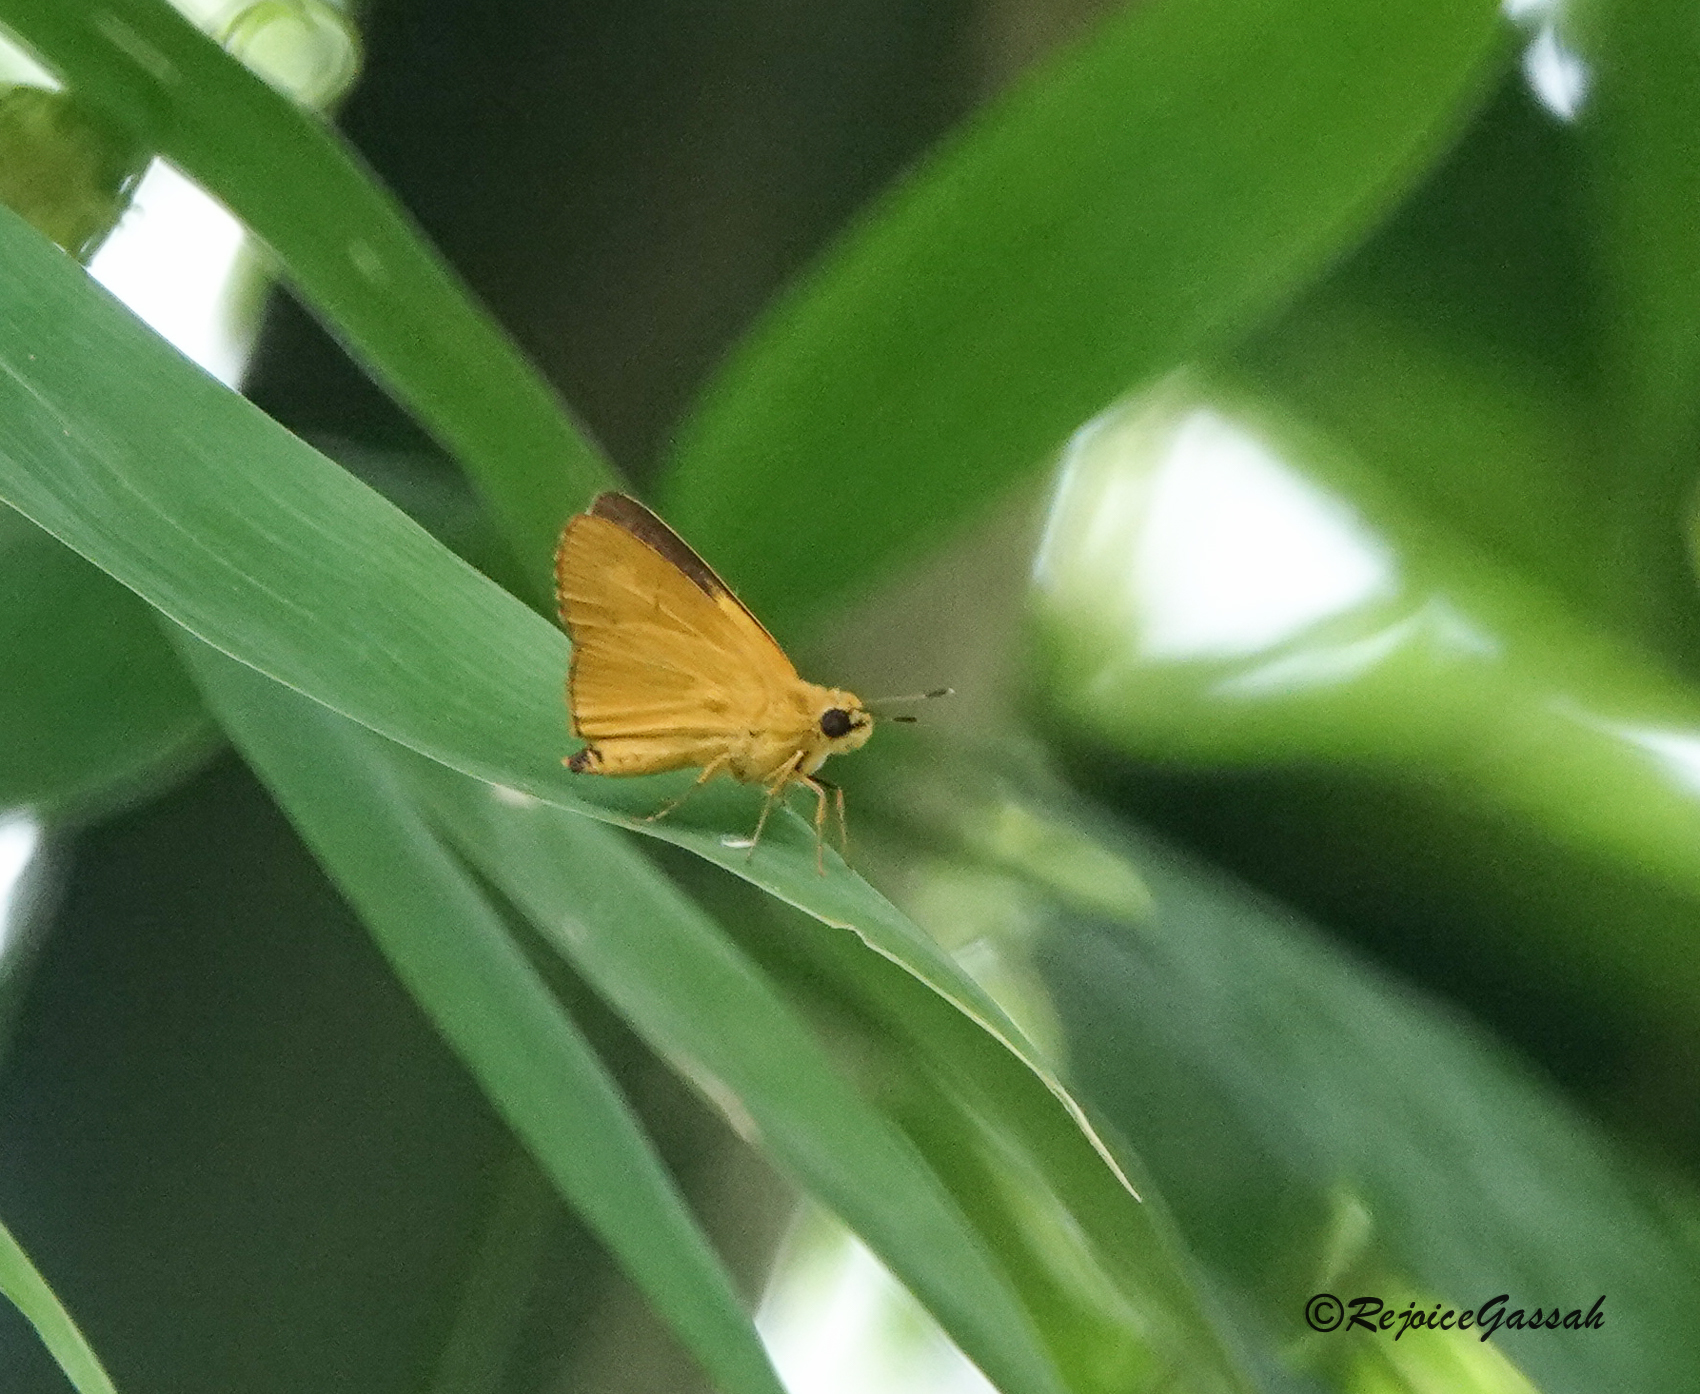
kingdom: Animalia
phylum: Arthropoda
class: Insecta
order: Lepidoptera
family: Hesperiidae
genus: Cupitha
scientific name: Cupitha purreea
